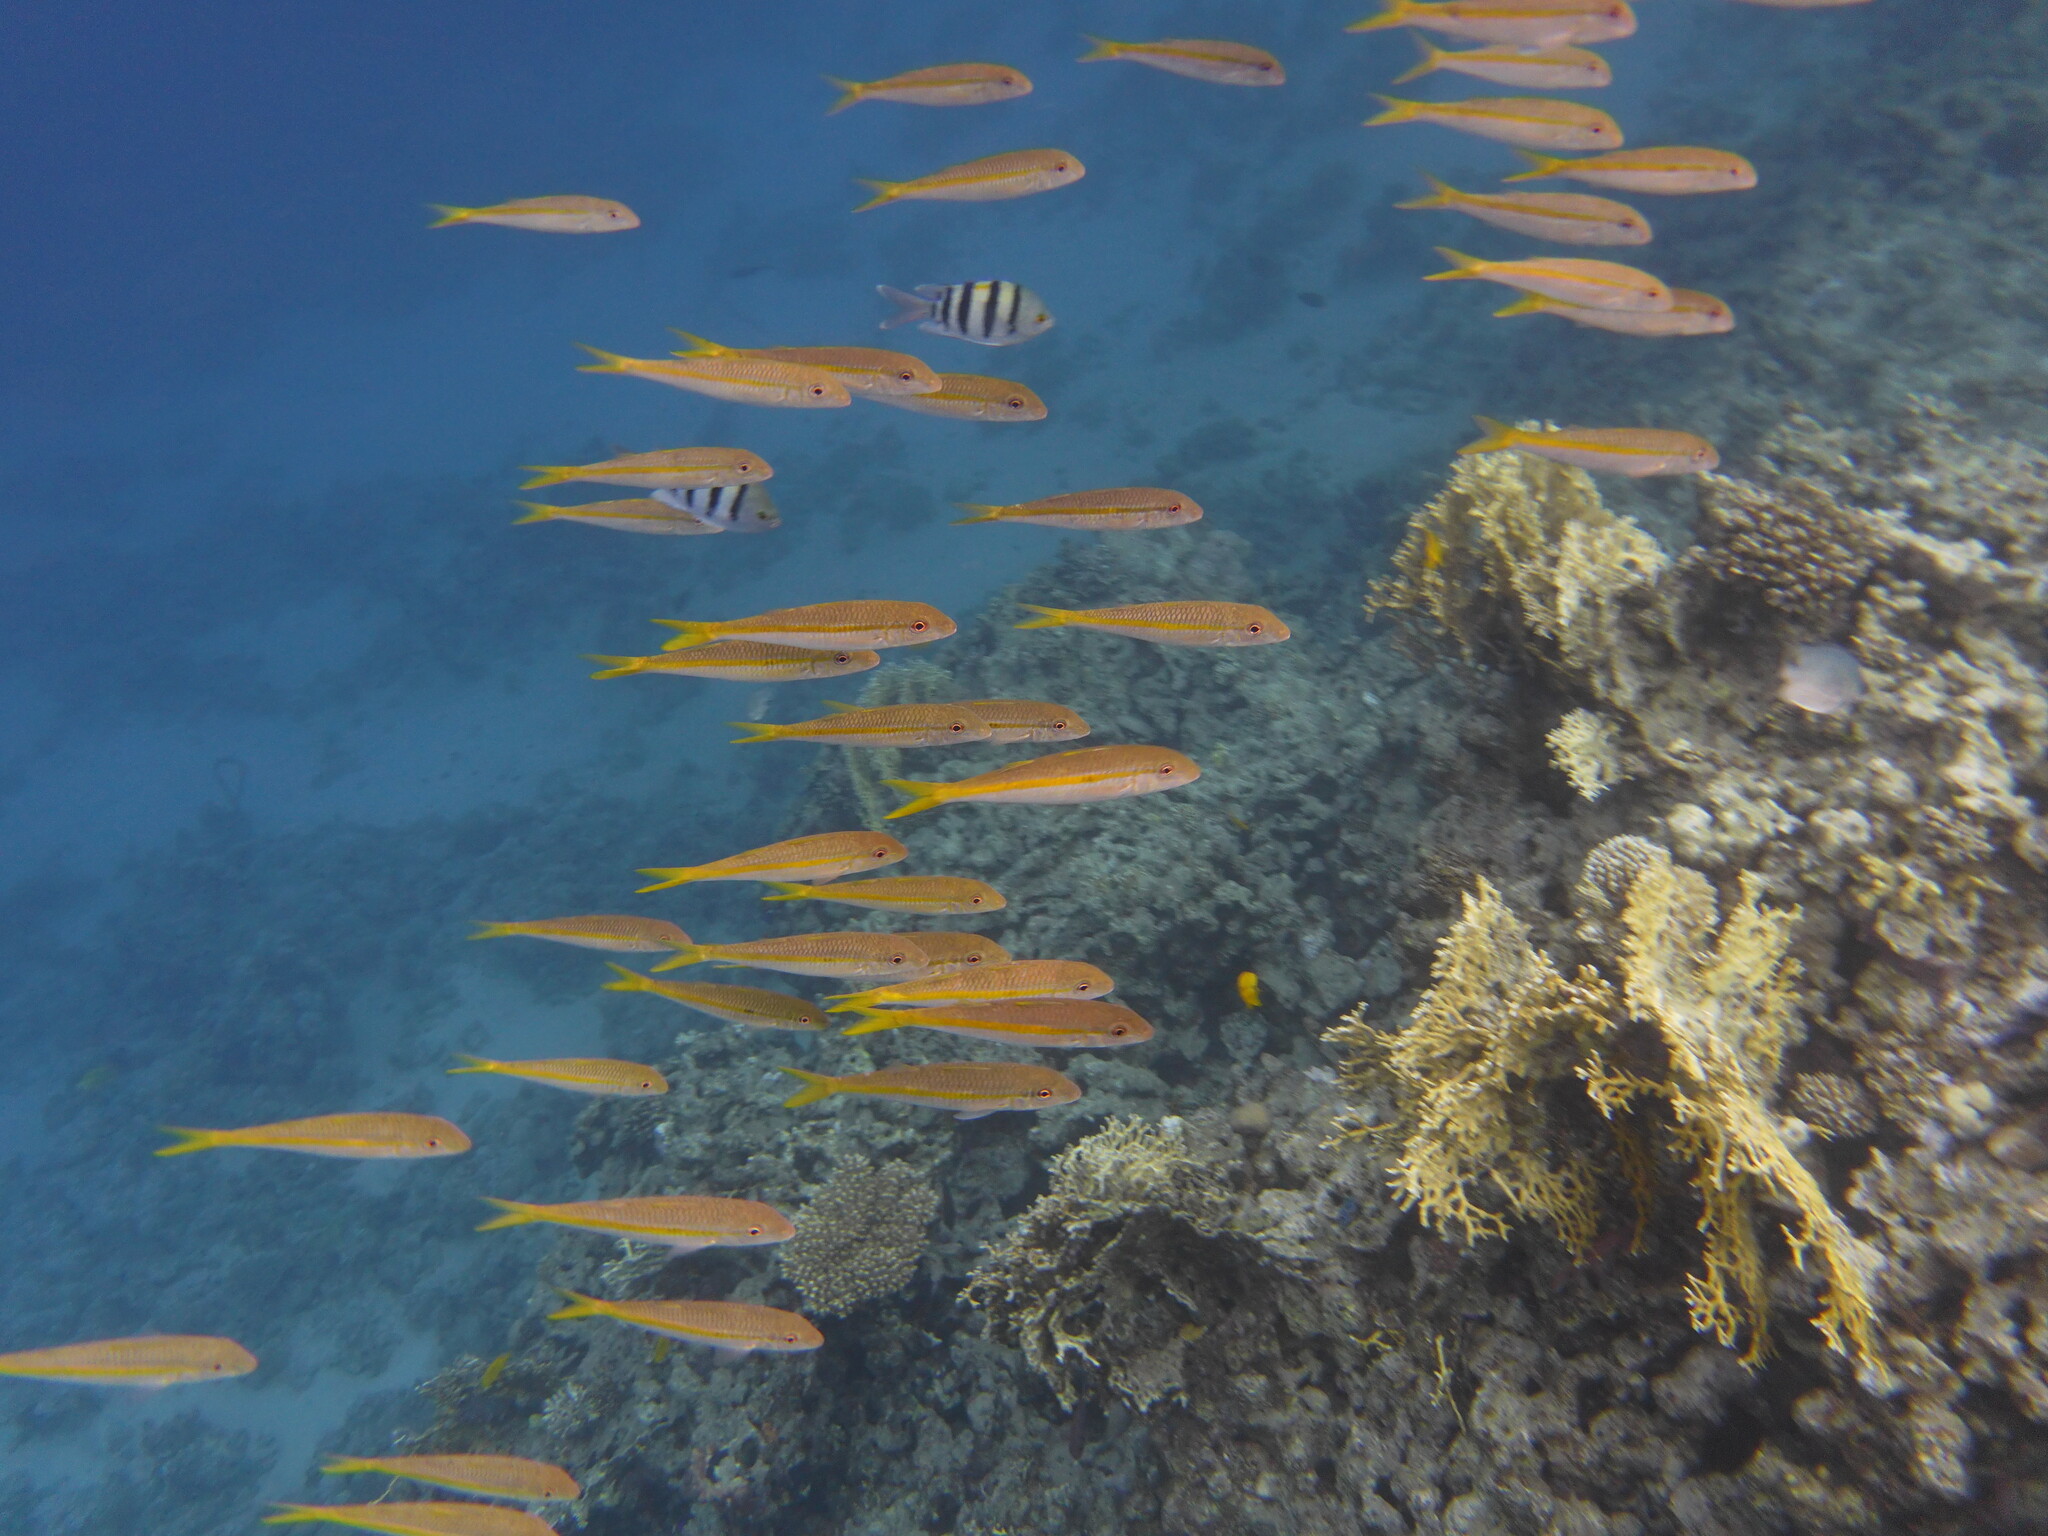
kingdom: Animalia
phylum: Chordata
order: Perciformes
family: Mullidae
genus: Mulloidichthys
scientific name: Mulloidichthys flavolineatus
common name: Yellowstripe goatfish
